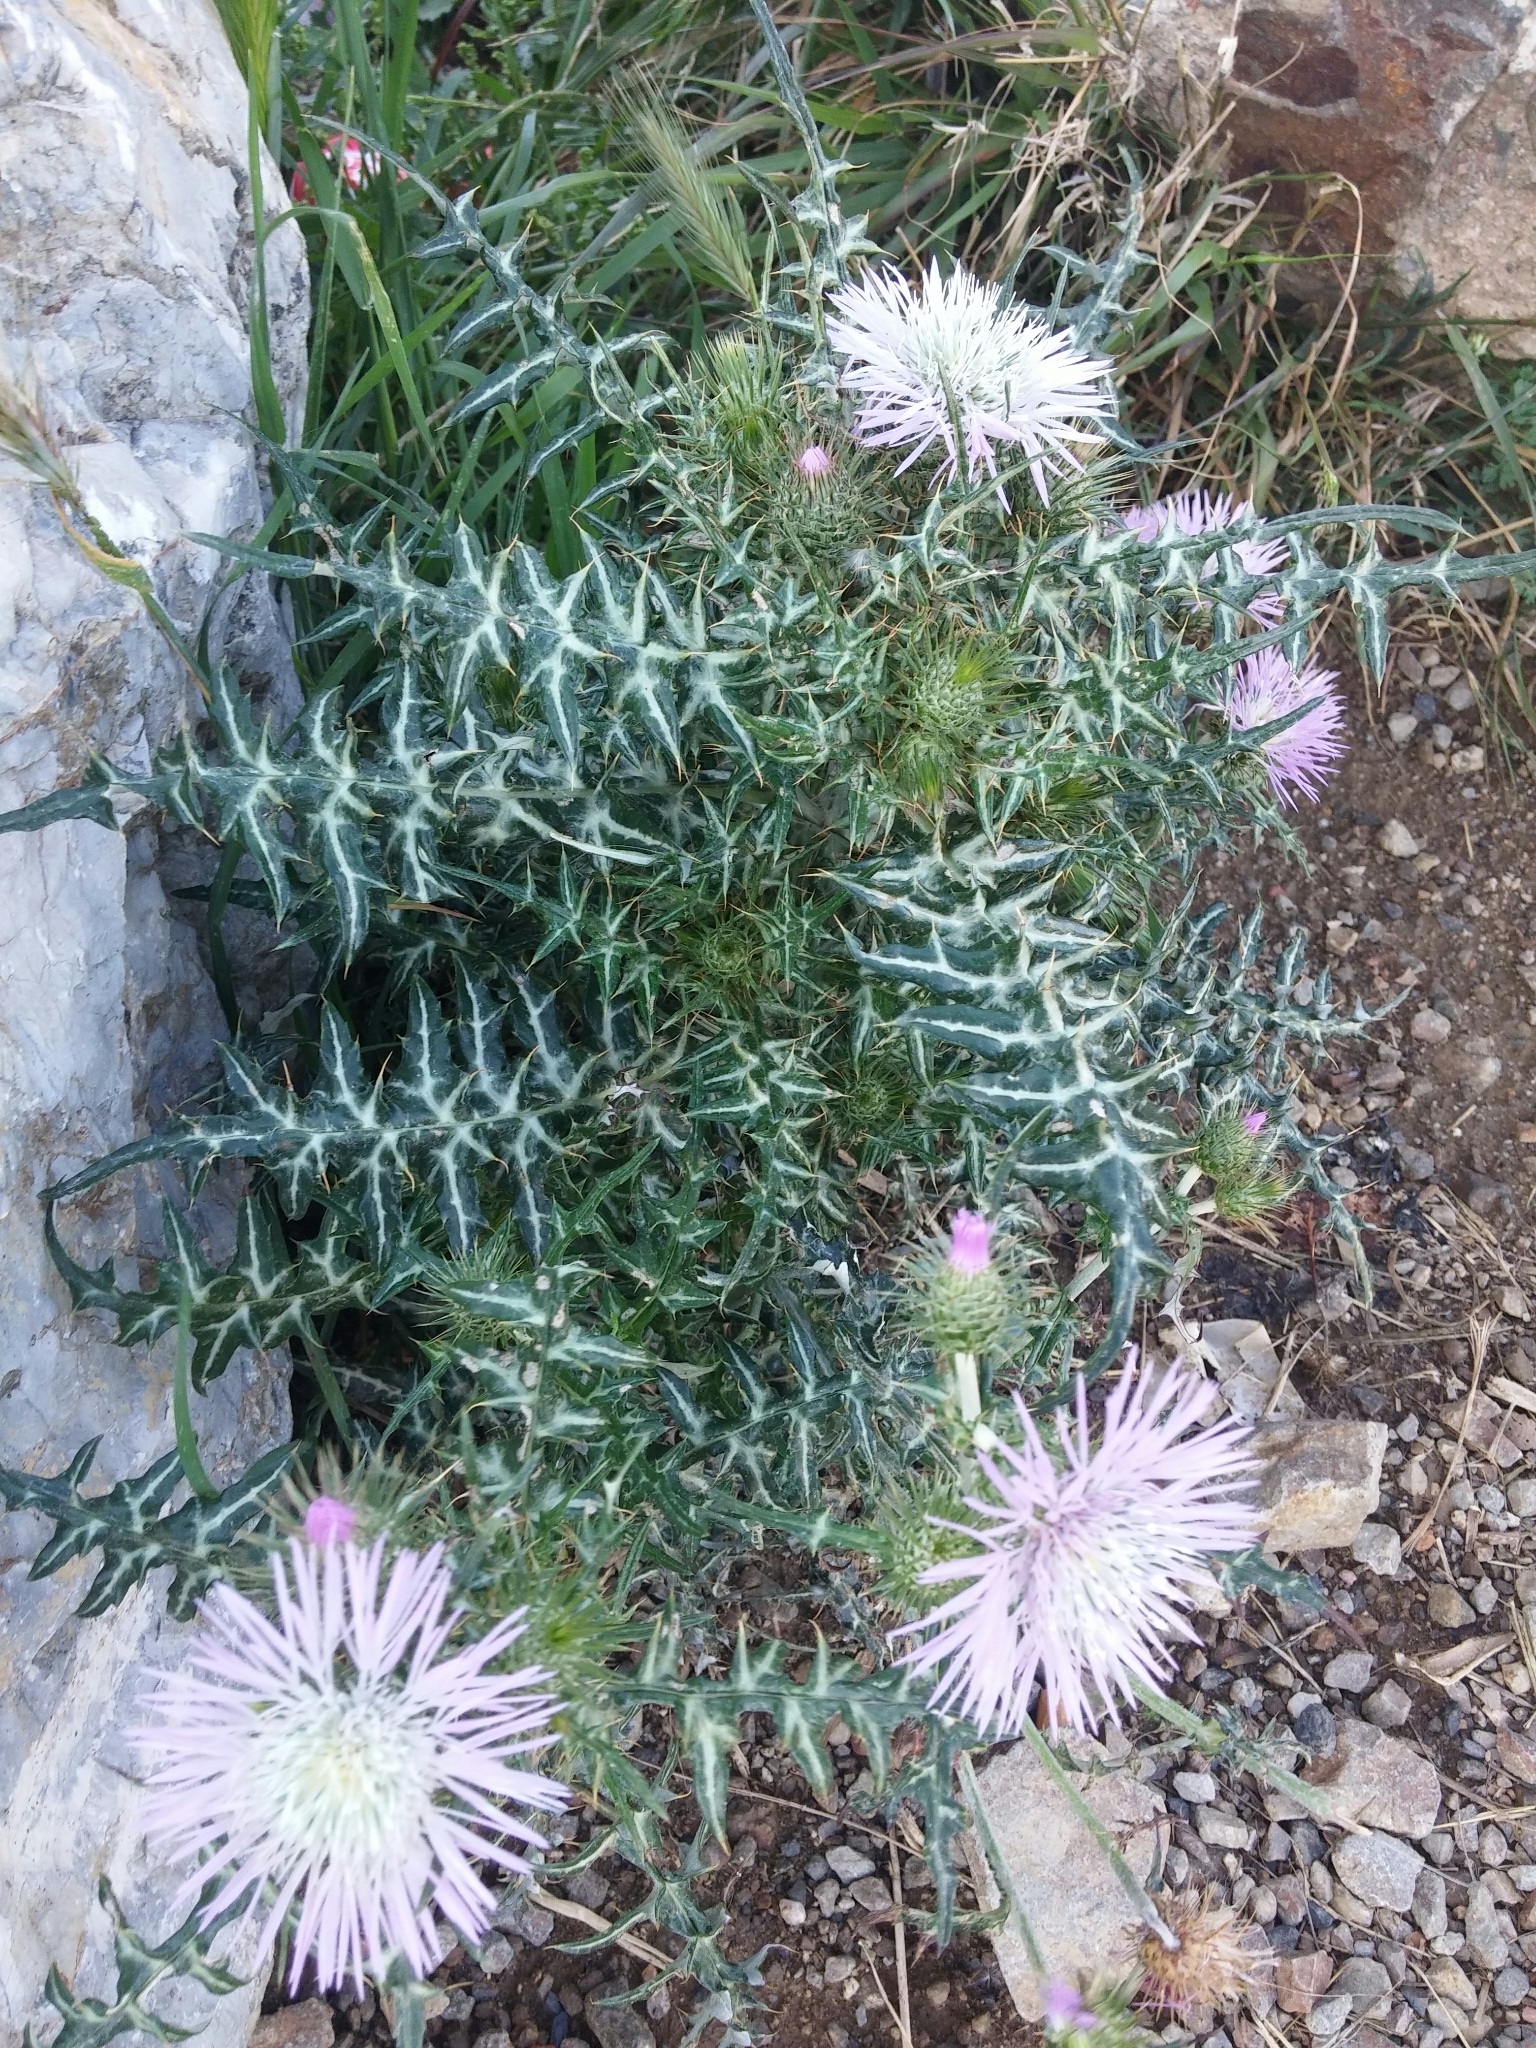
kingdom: Plantae
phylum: Tracheophyta
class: Magnoliopsida
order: Asterales
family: Asteraceae
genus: Galactites
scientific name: Galactites tomentosa
